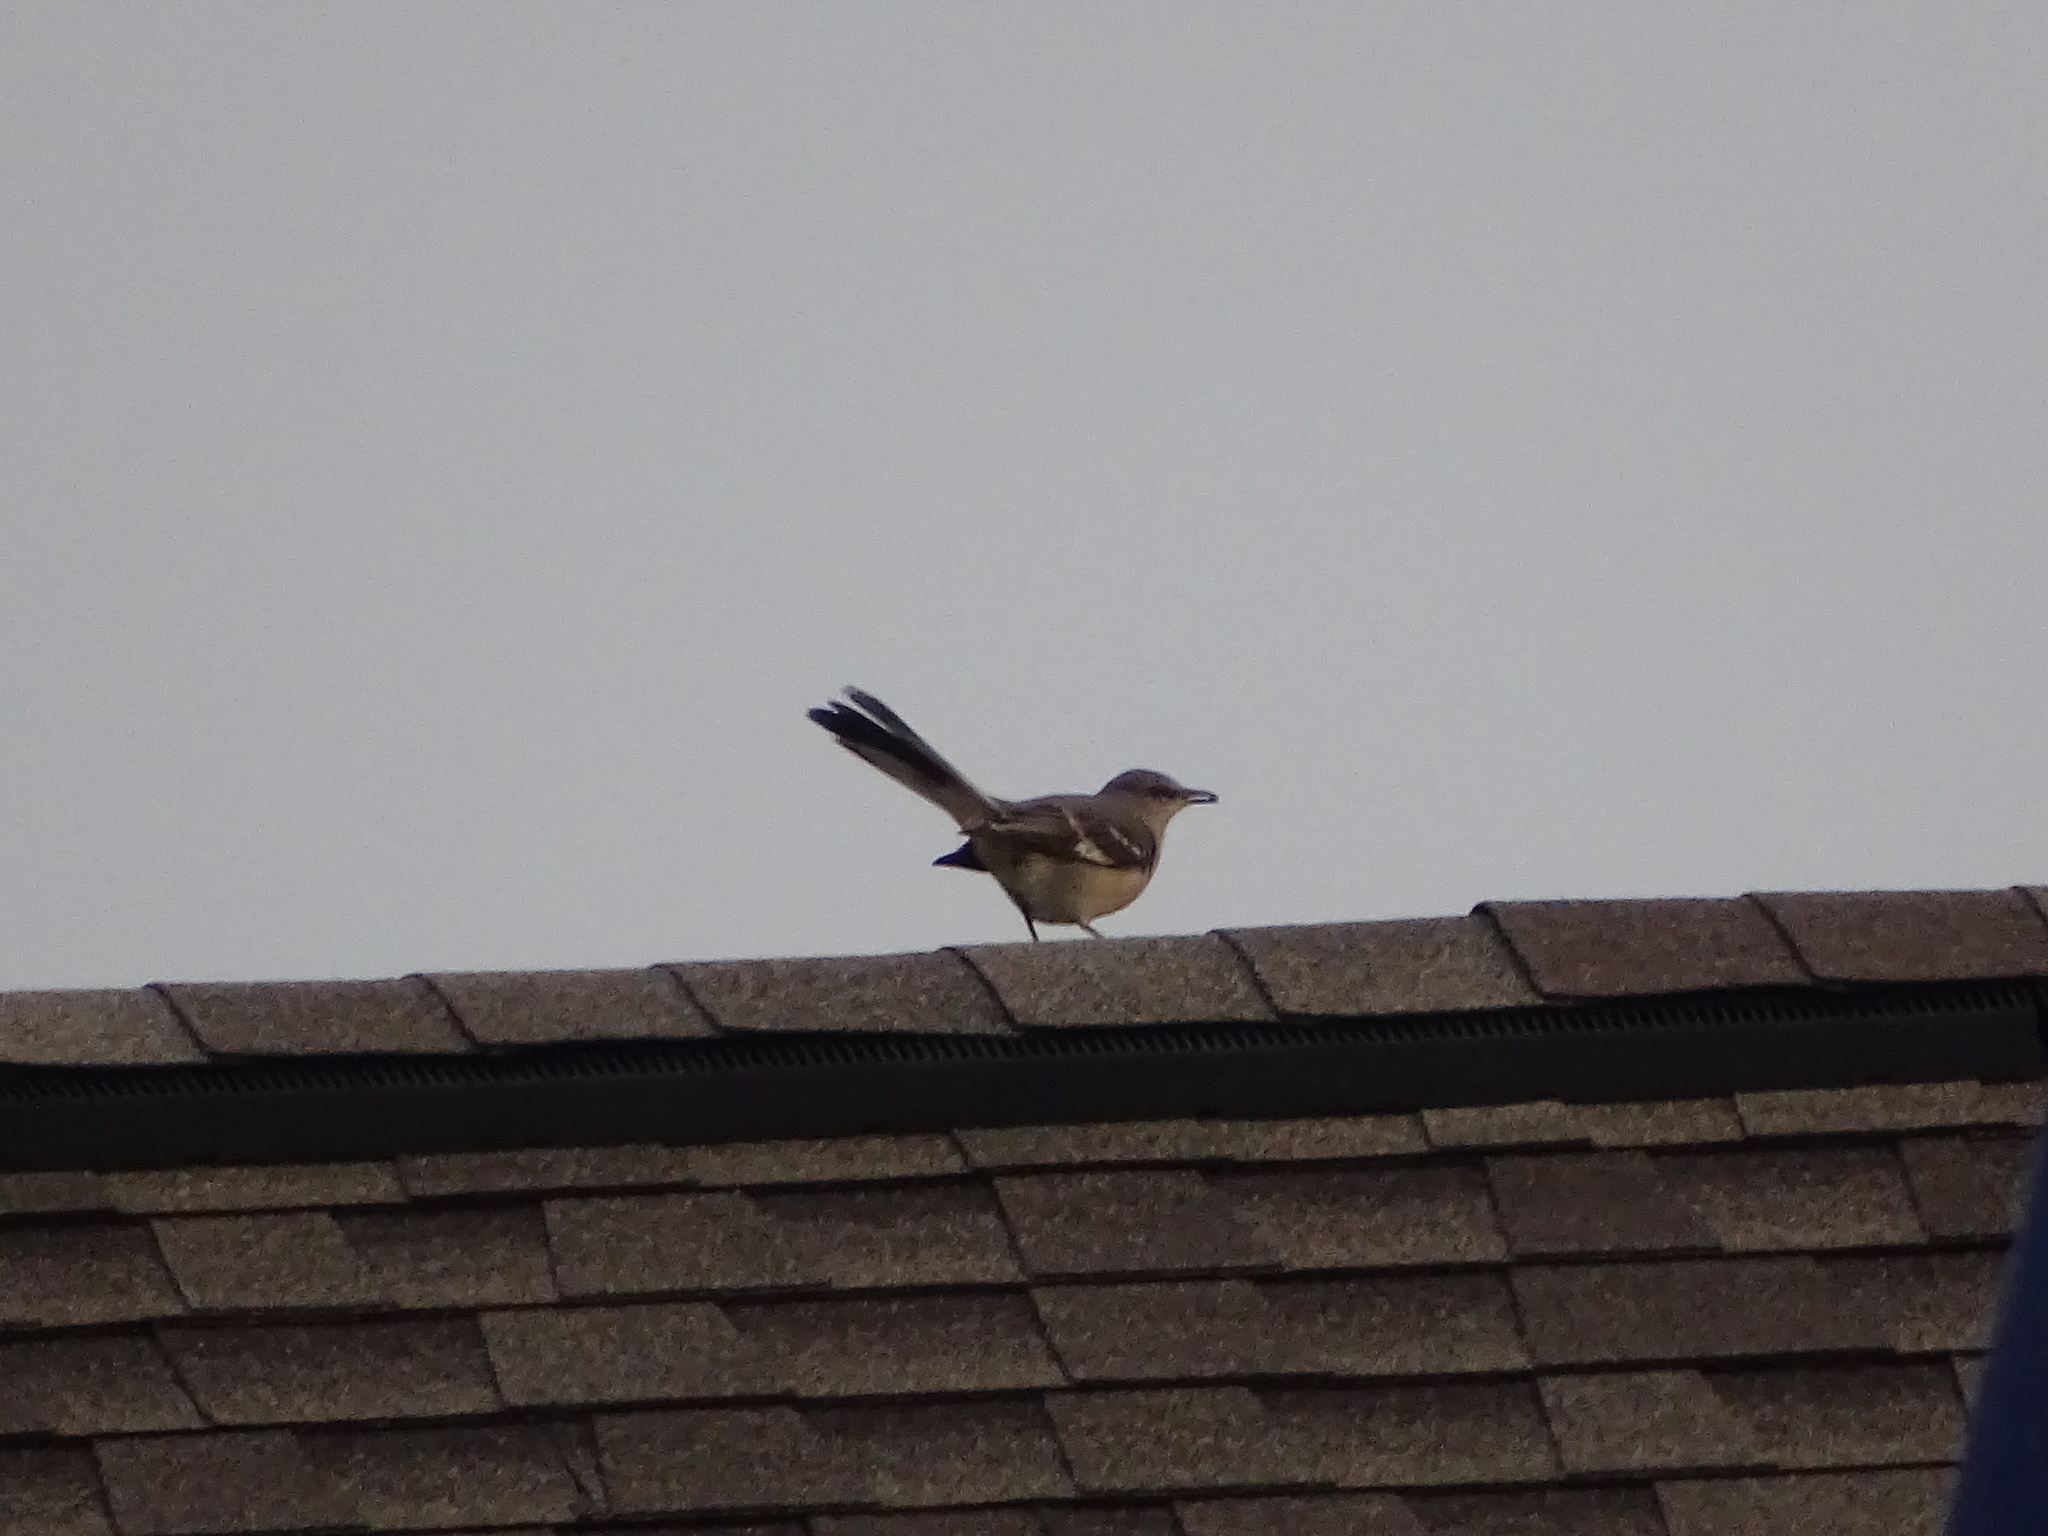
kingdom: Animalia
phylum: Chordata
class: Aves
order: Passeriformes
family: Mimidae
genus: Mimus
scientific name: Mimus polyglottos
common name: Northern mockingbird
